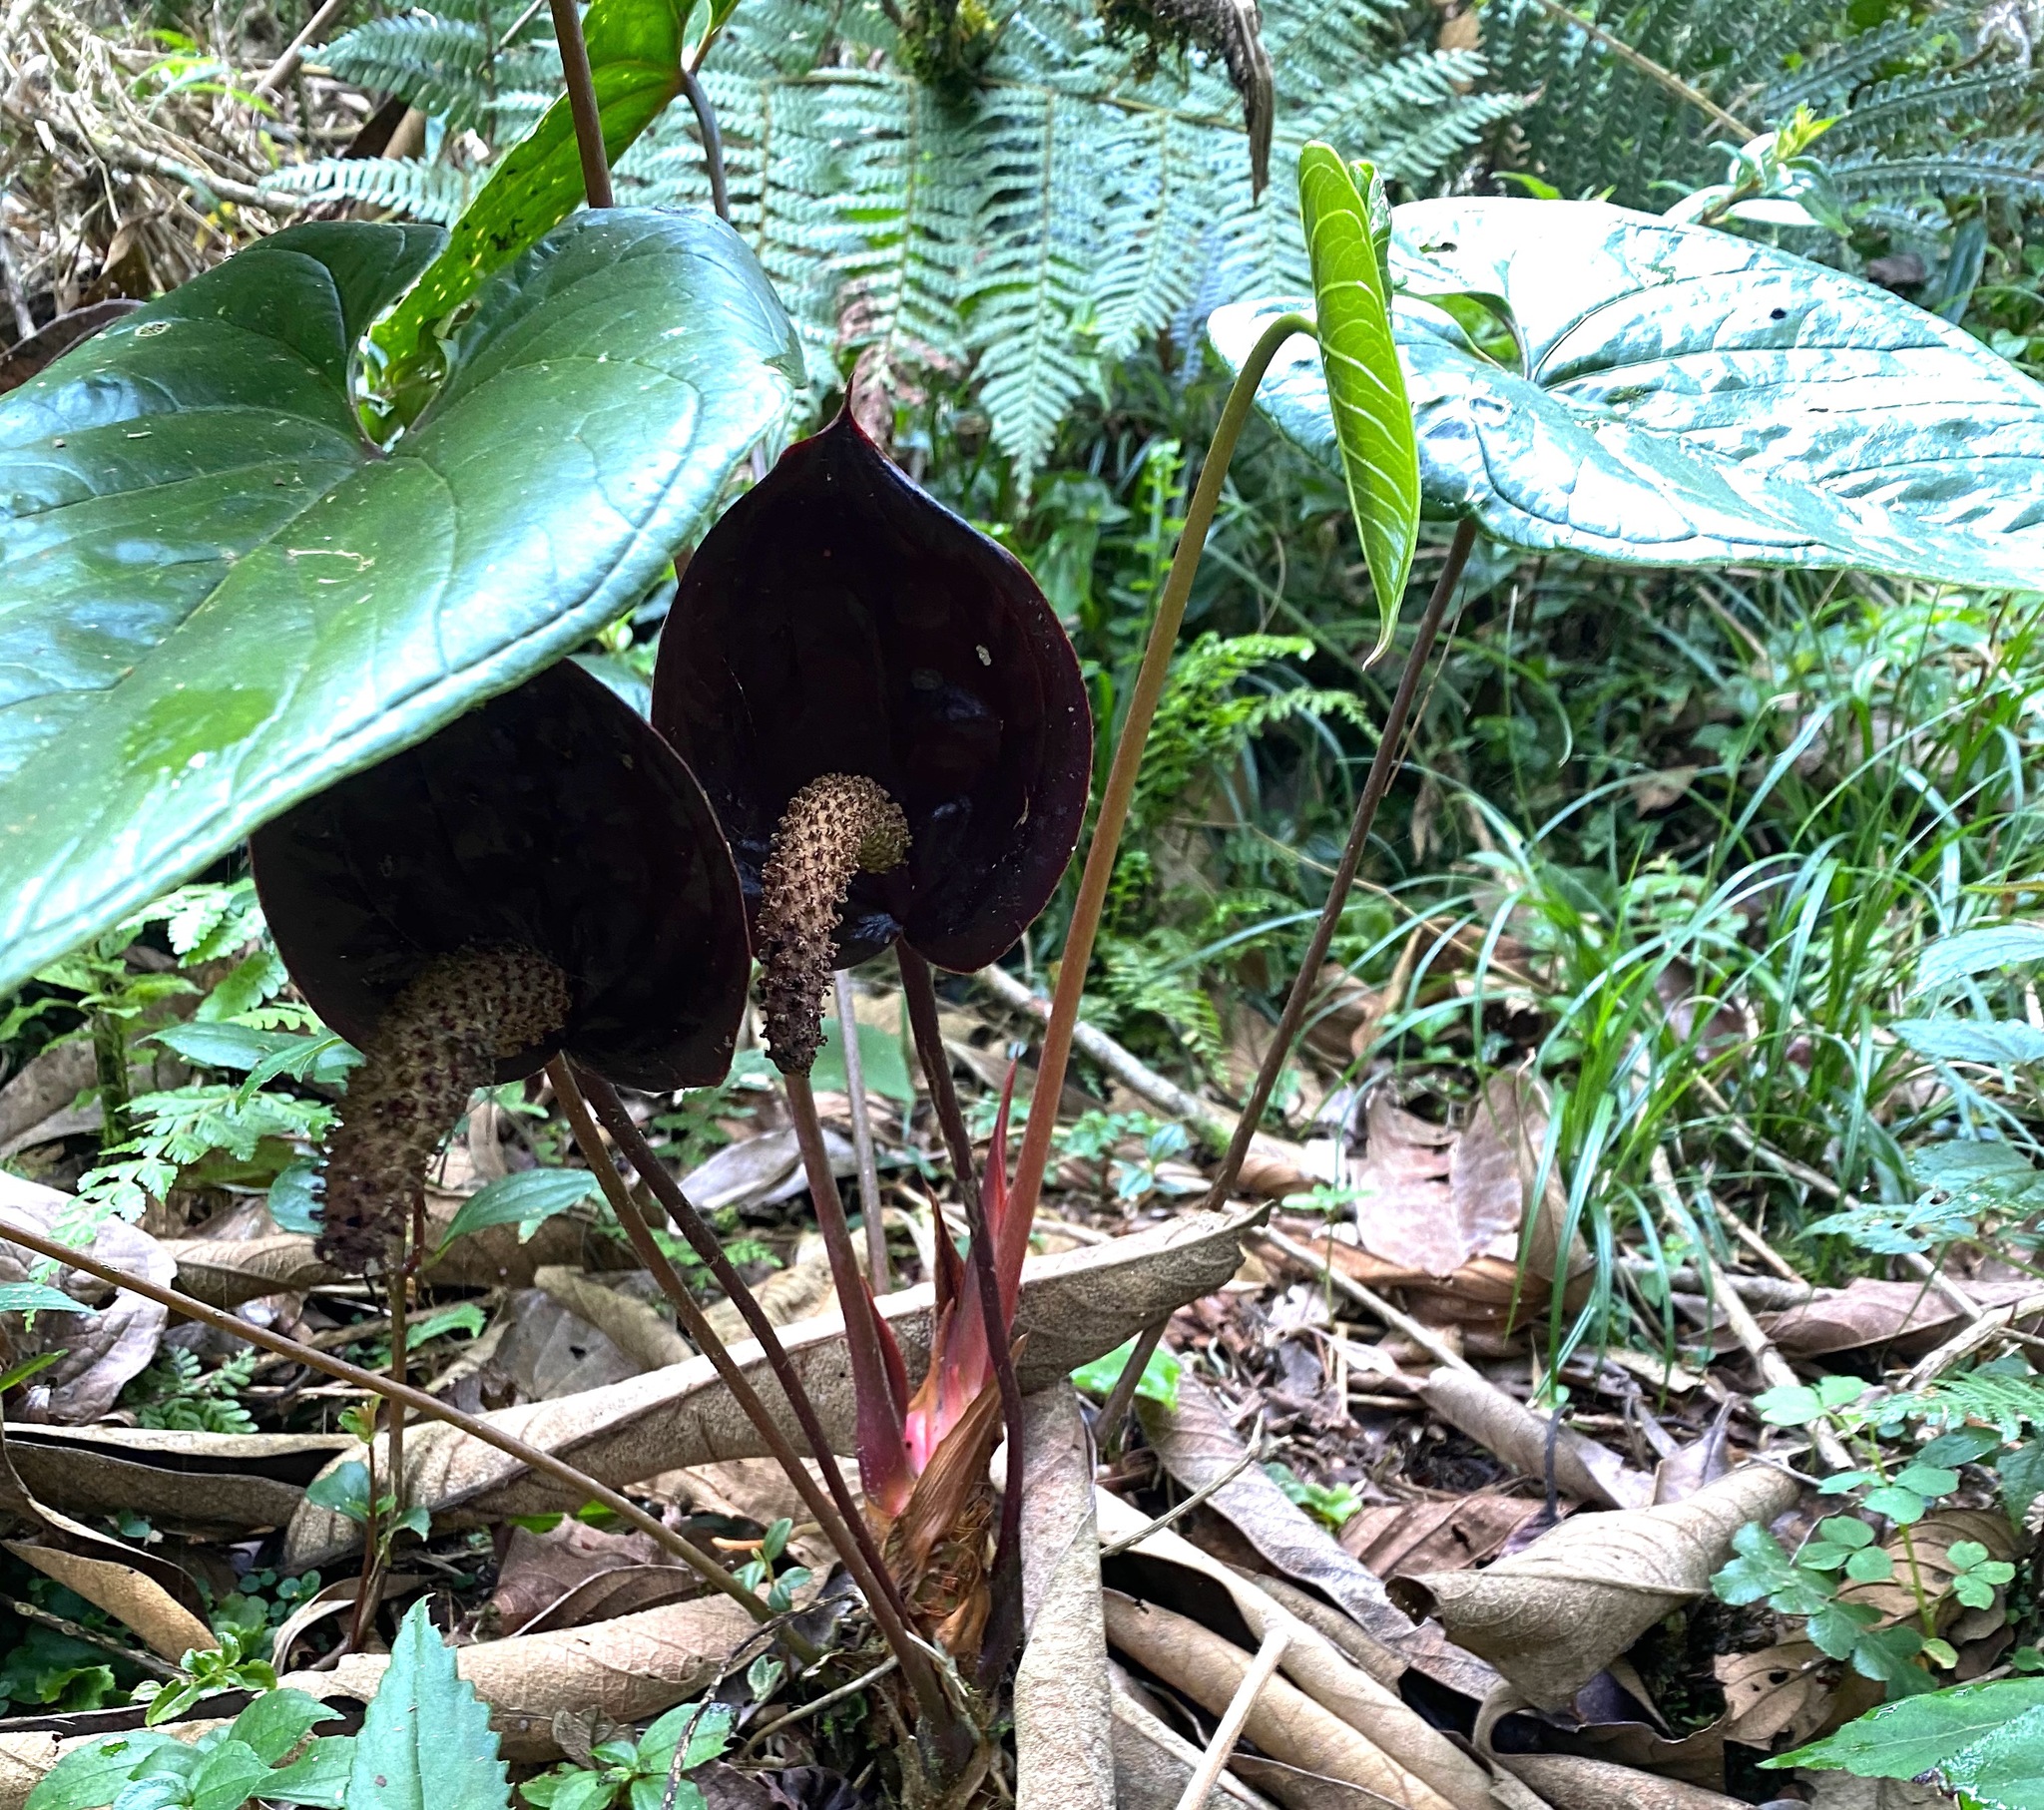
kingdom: Plantae
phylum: Tracheophyta
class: Liliopsida
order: Alismatales
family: Araceae
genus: Anthurium
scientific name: Anthurium caramantae
